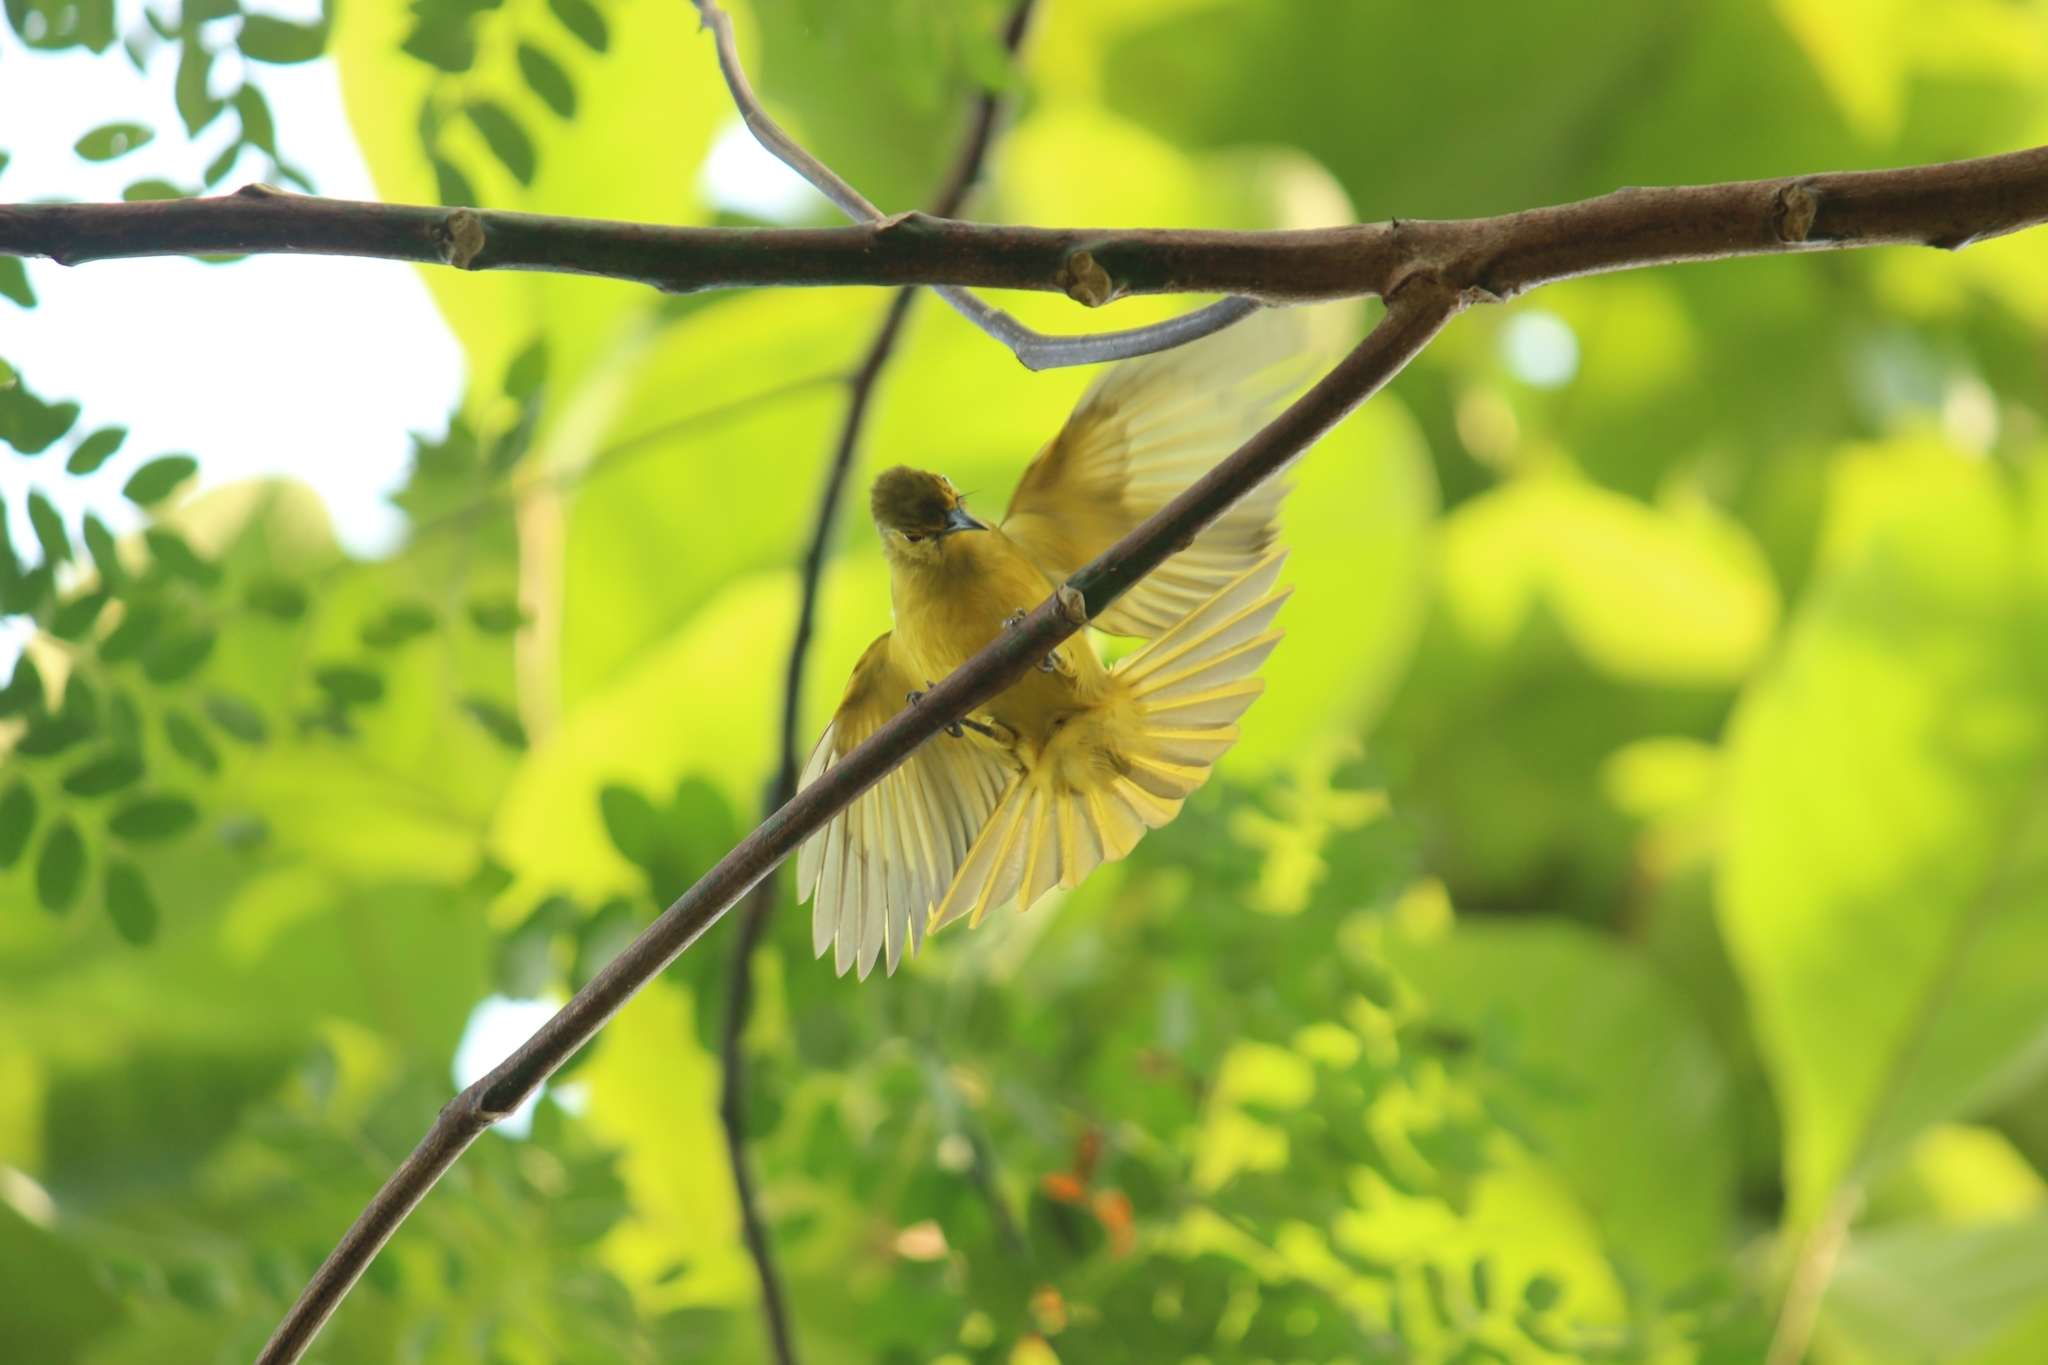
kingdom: Animalia
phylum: Chordata
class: Aves
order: Passeriformes
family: Pycnonotidae
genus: Acritillas
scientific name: Acritillas indica
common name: Yellow-browed bulbul
